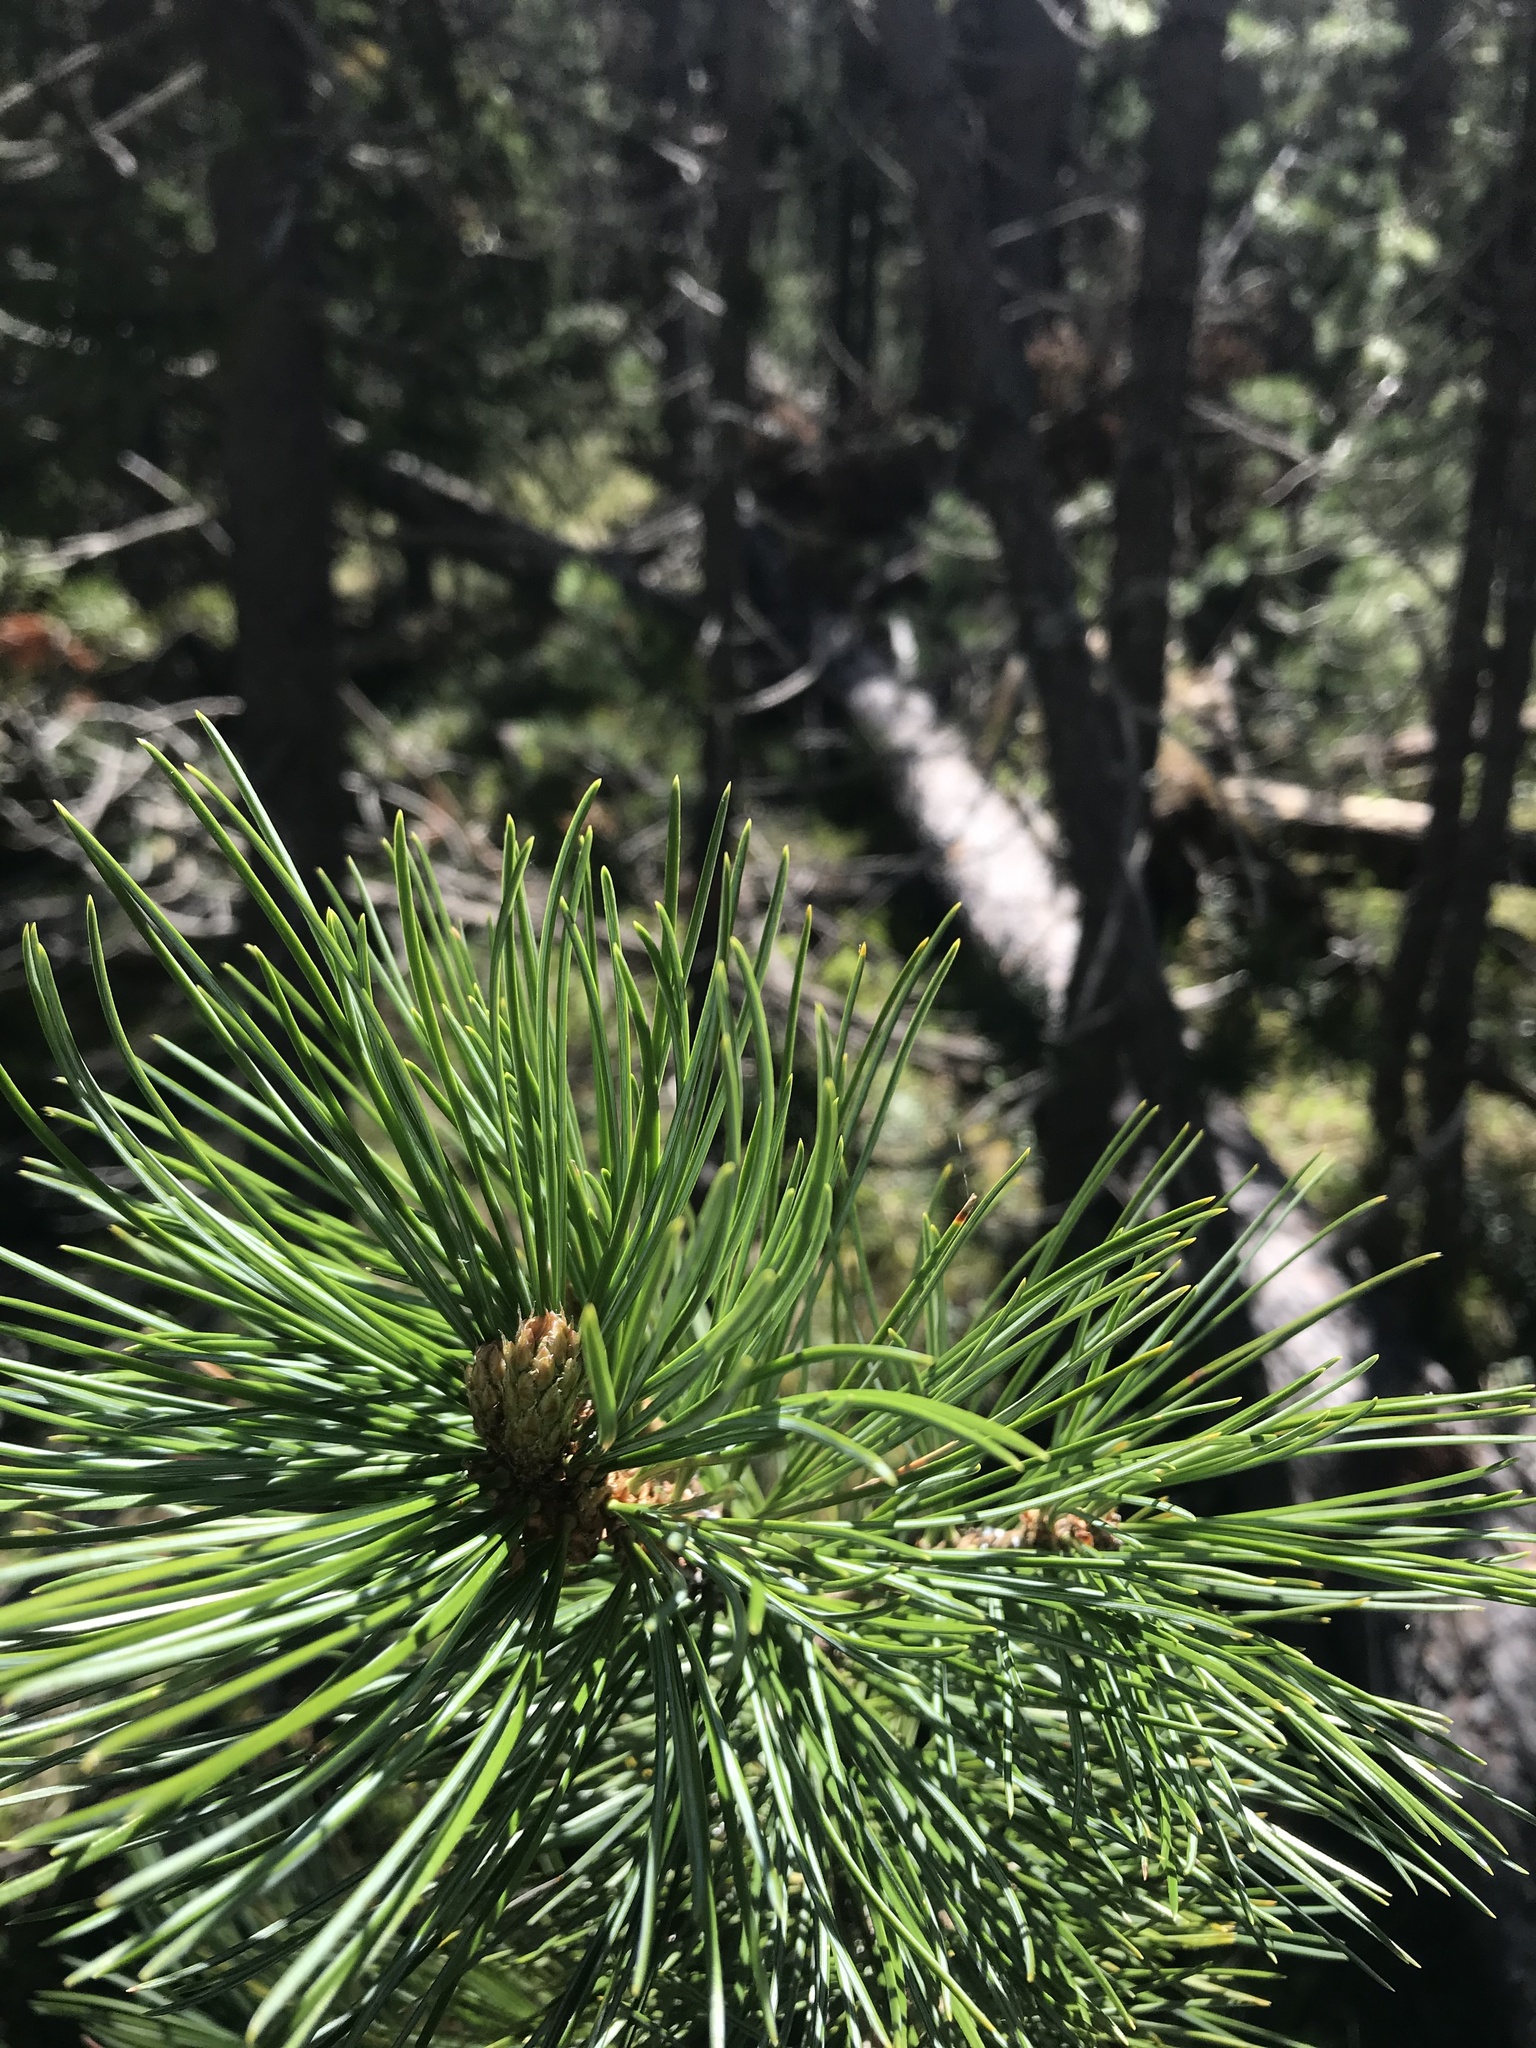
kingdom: Plantae
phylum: Tracheophyta
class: Pinopsida
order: Pinales
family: Pinaceae
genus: Pinus
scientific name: Pinus cembra
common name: Arolla pine
